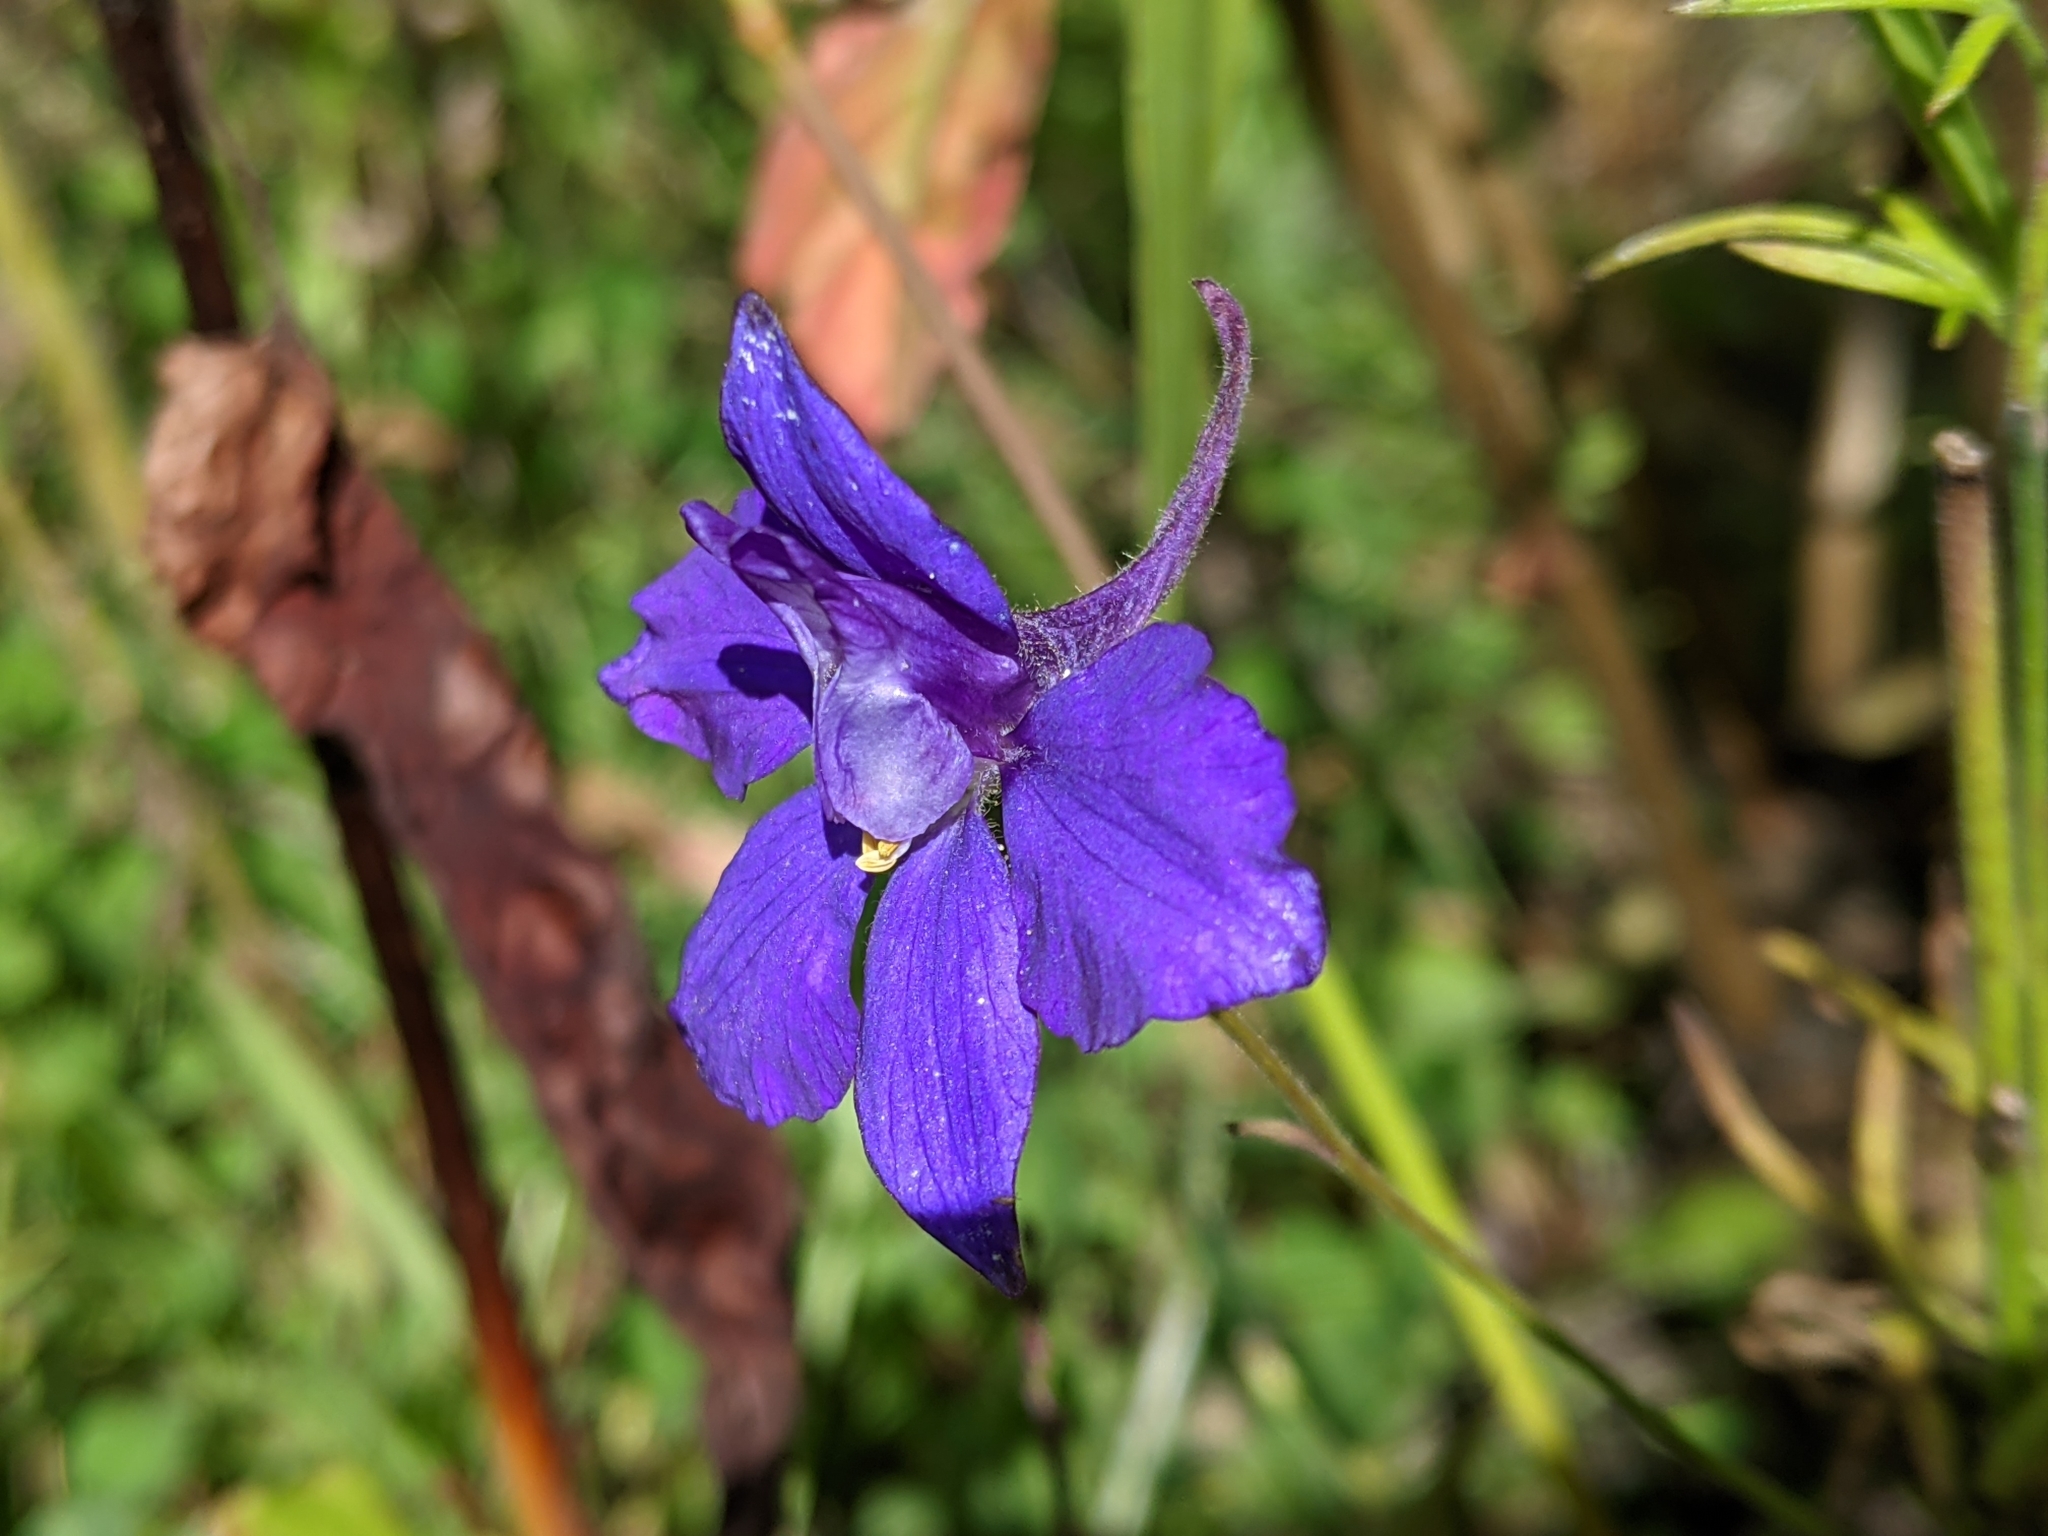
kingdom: Plantae
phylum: Tracheophyta
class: Magnoliopsida
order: Ranunculales
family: Ranunculaceae
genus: Delphinium
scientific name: Delphinium consolida
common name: Branching larkspur
